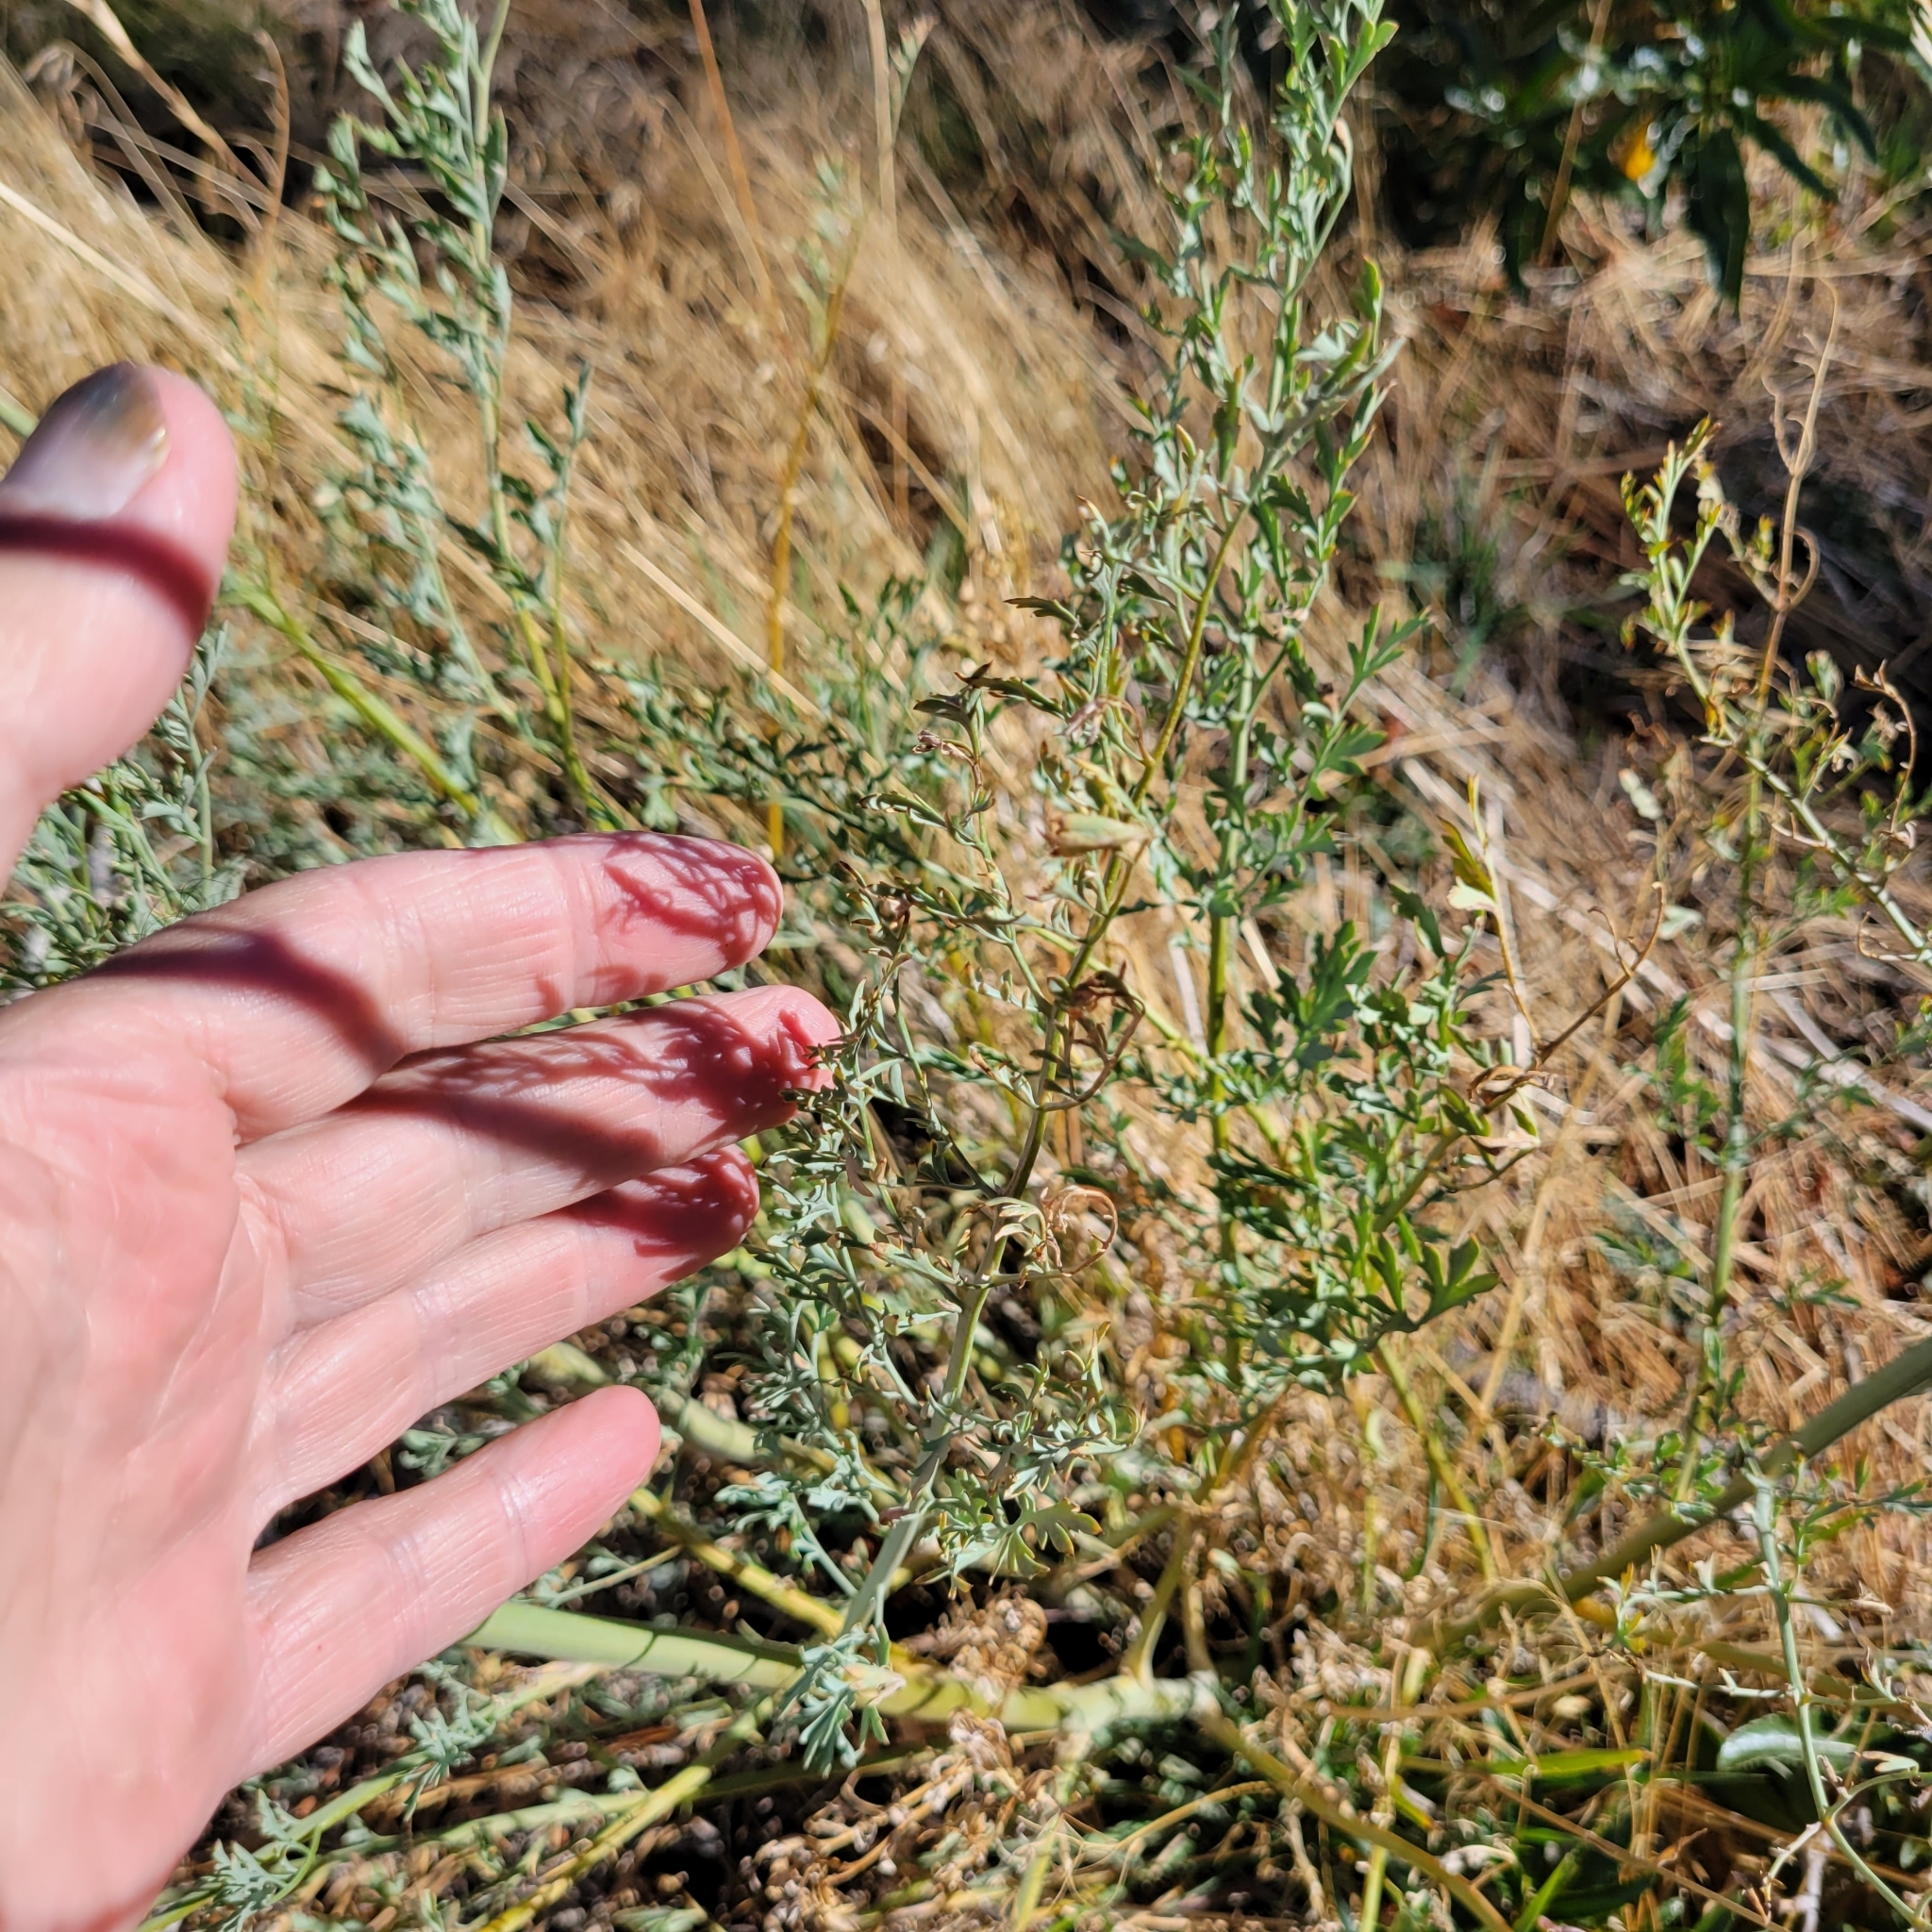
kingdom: Plantae
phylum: Tracheophyta
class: Magnoliopsida
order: Ranunculales
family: Papaveraceae
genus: Ehrendorferia
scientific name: Ehrendorferia chrysantha
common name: Golden eardrops
